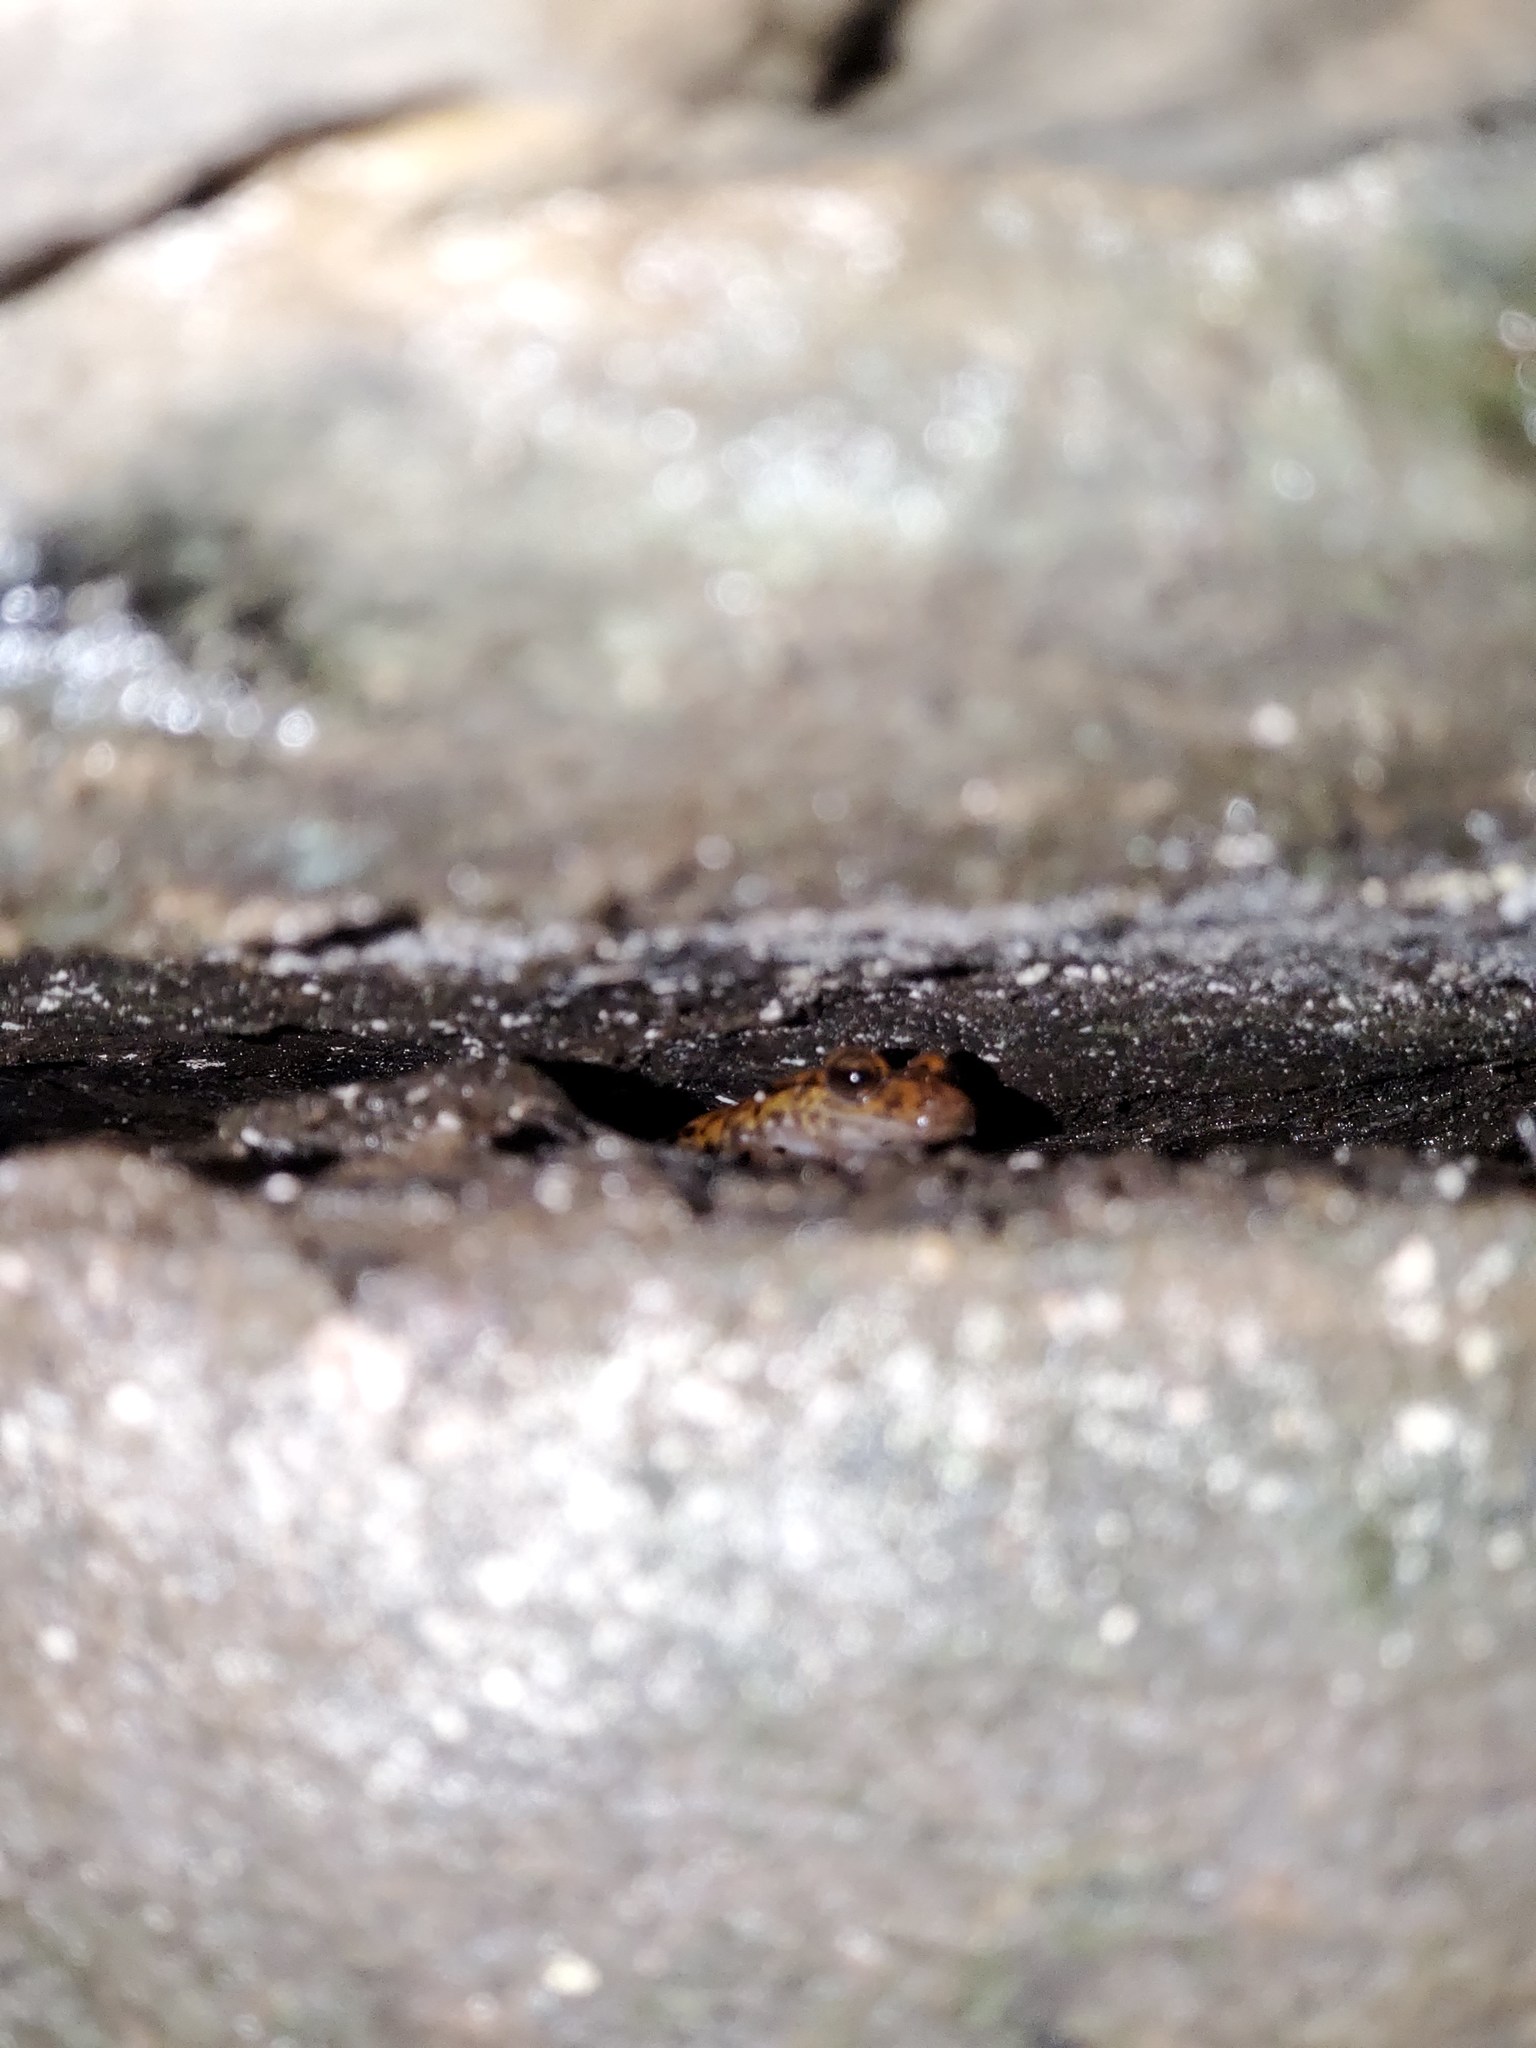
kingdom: Animalia
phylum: Chordata
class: Amphibia
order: Caudata
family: Plethodontidae
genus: Eurycea
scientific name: Eurycea lucifuga
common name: Cave salamander
